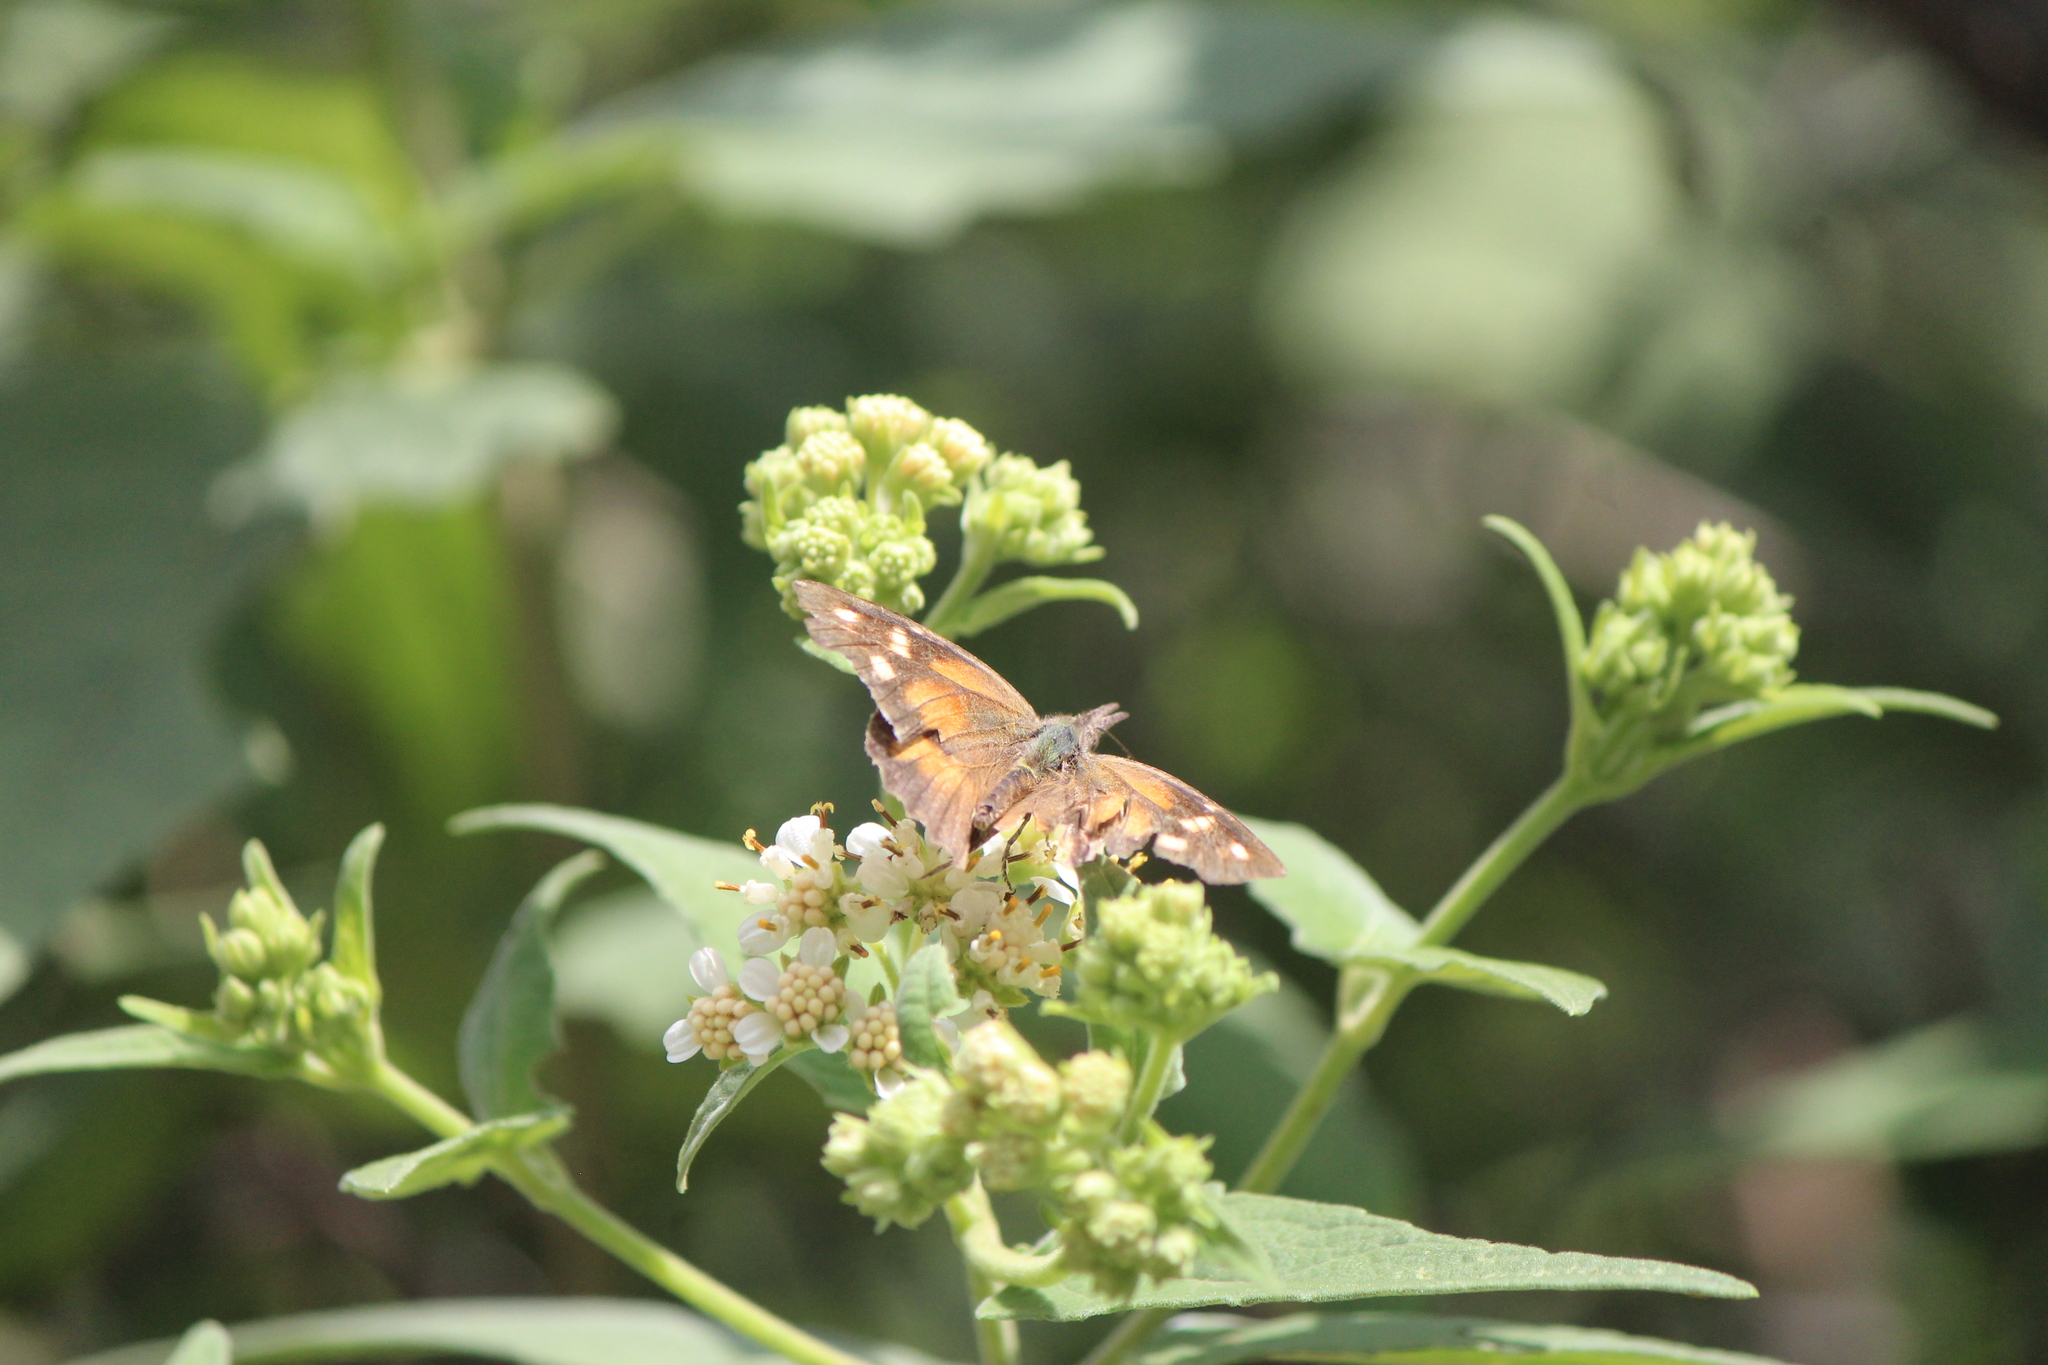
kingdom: Animalia
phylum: Arthropoda
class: Insecta
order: Lepidoptera
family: Nymphalidae
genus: Libytheana
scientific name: Libytheana carinenta
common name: American snout
